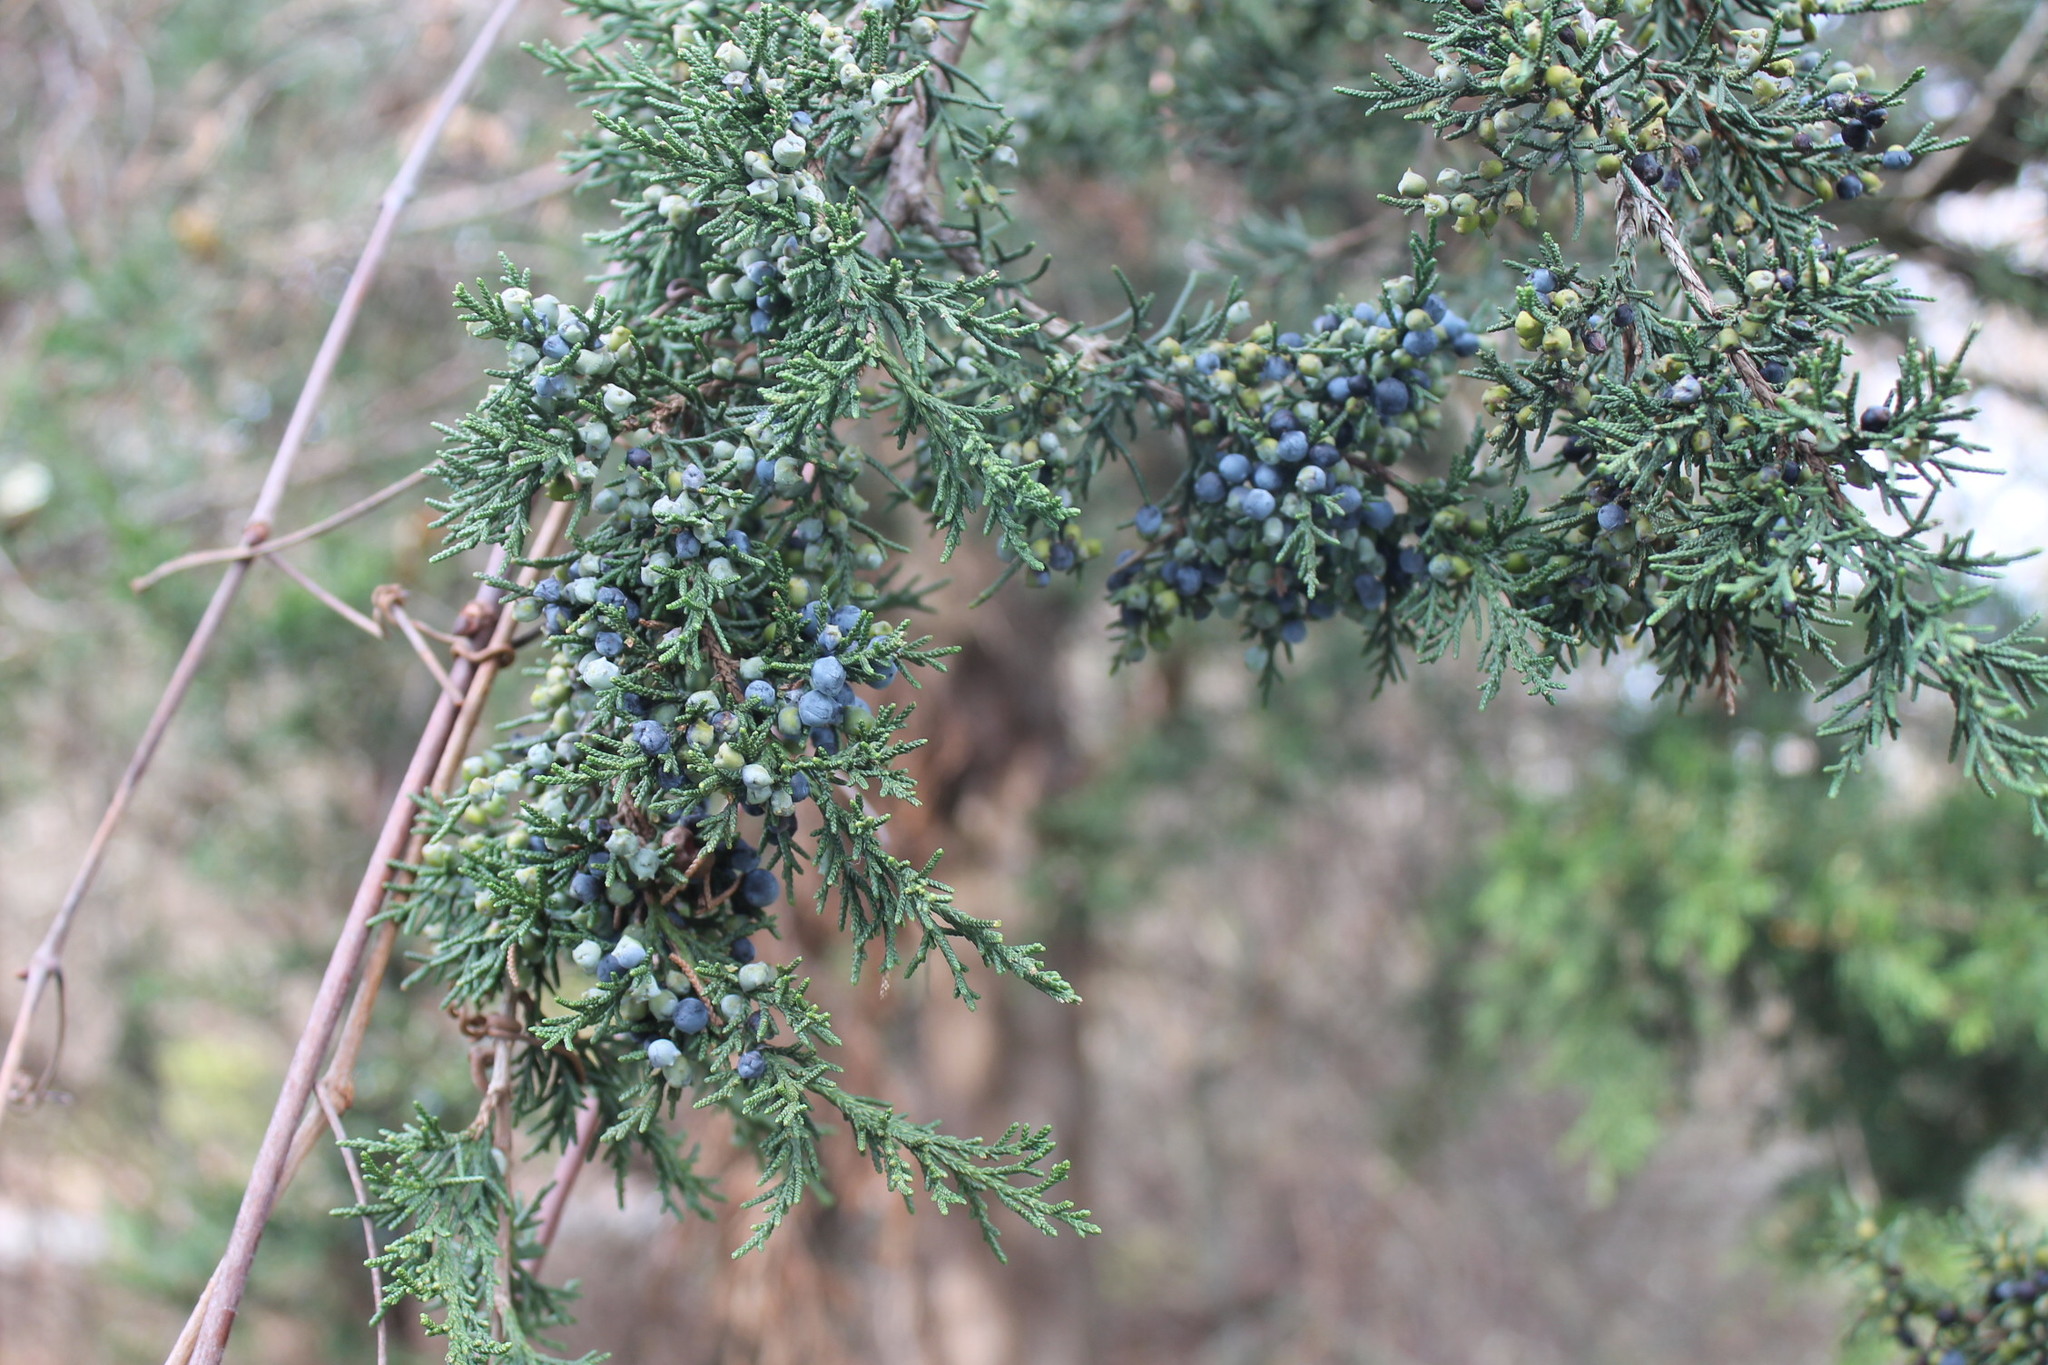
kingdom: Plantae
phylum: Tracheophyta
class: Pinopsida
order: Pinales
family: Cupressaceae
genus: Juniperus
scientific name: Juniperus virginiana
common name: Red juniper
